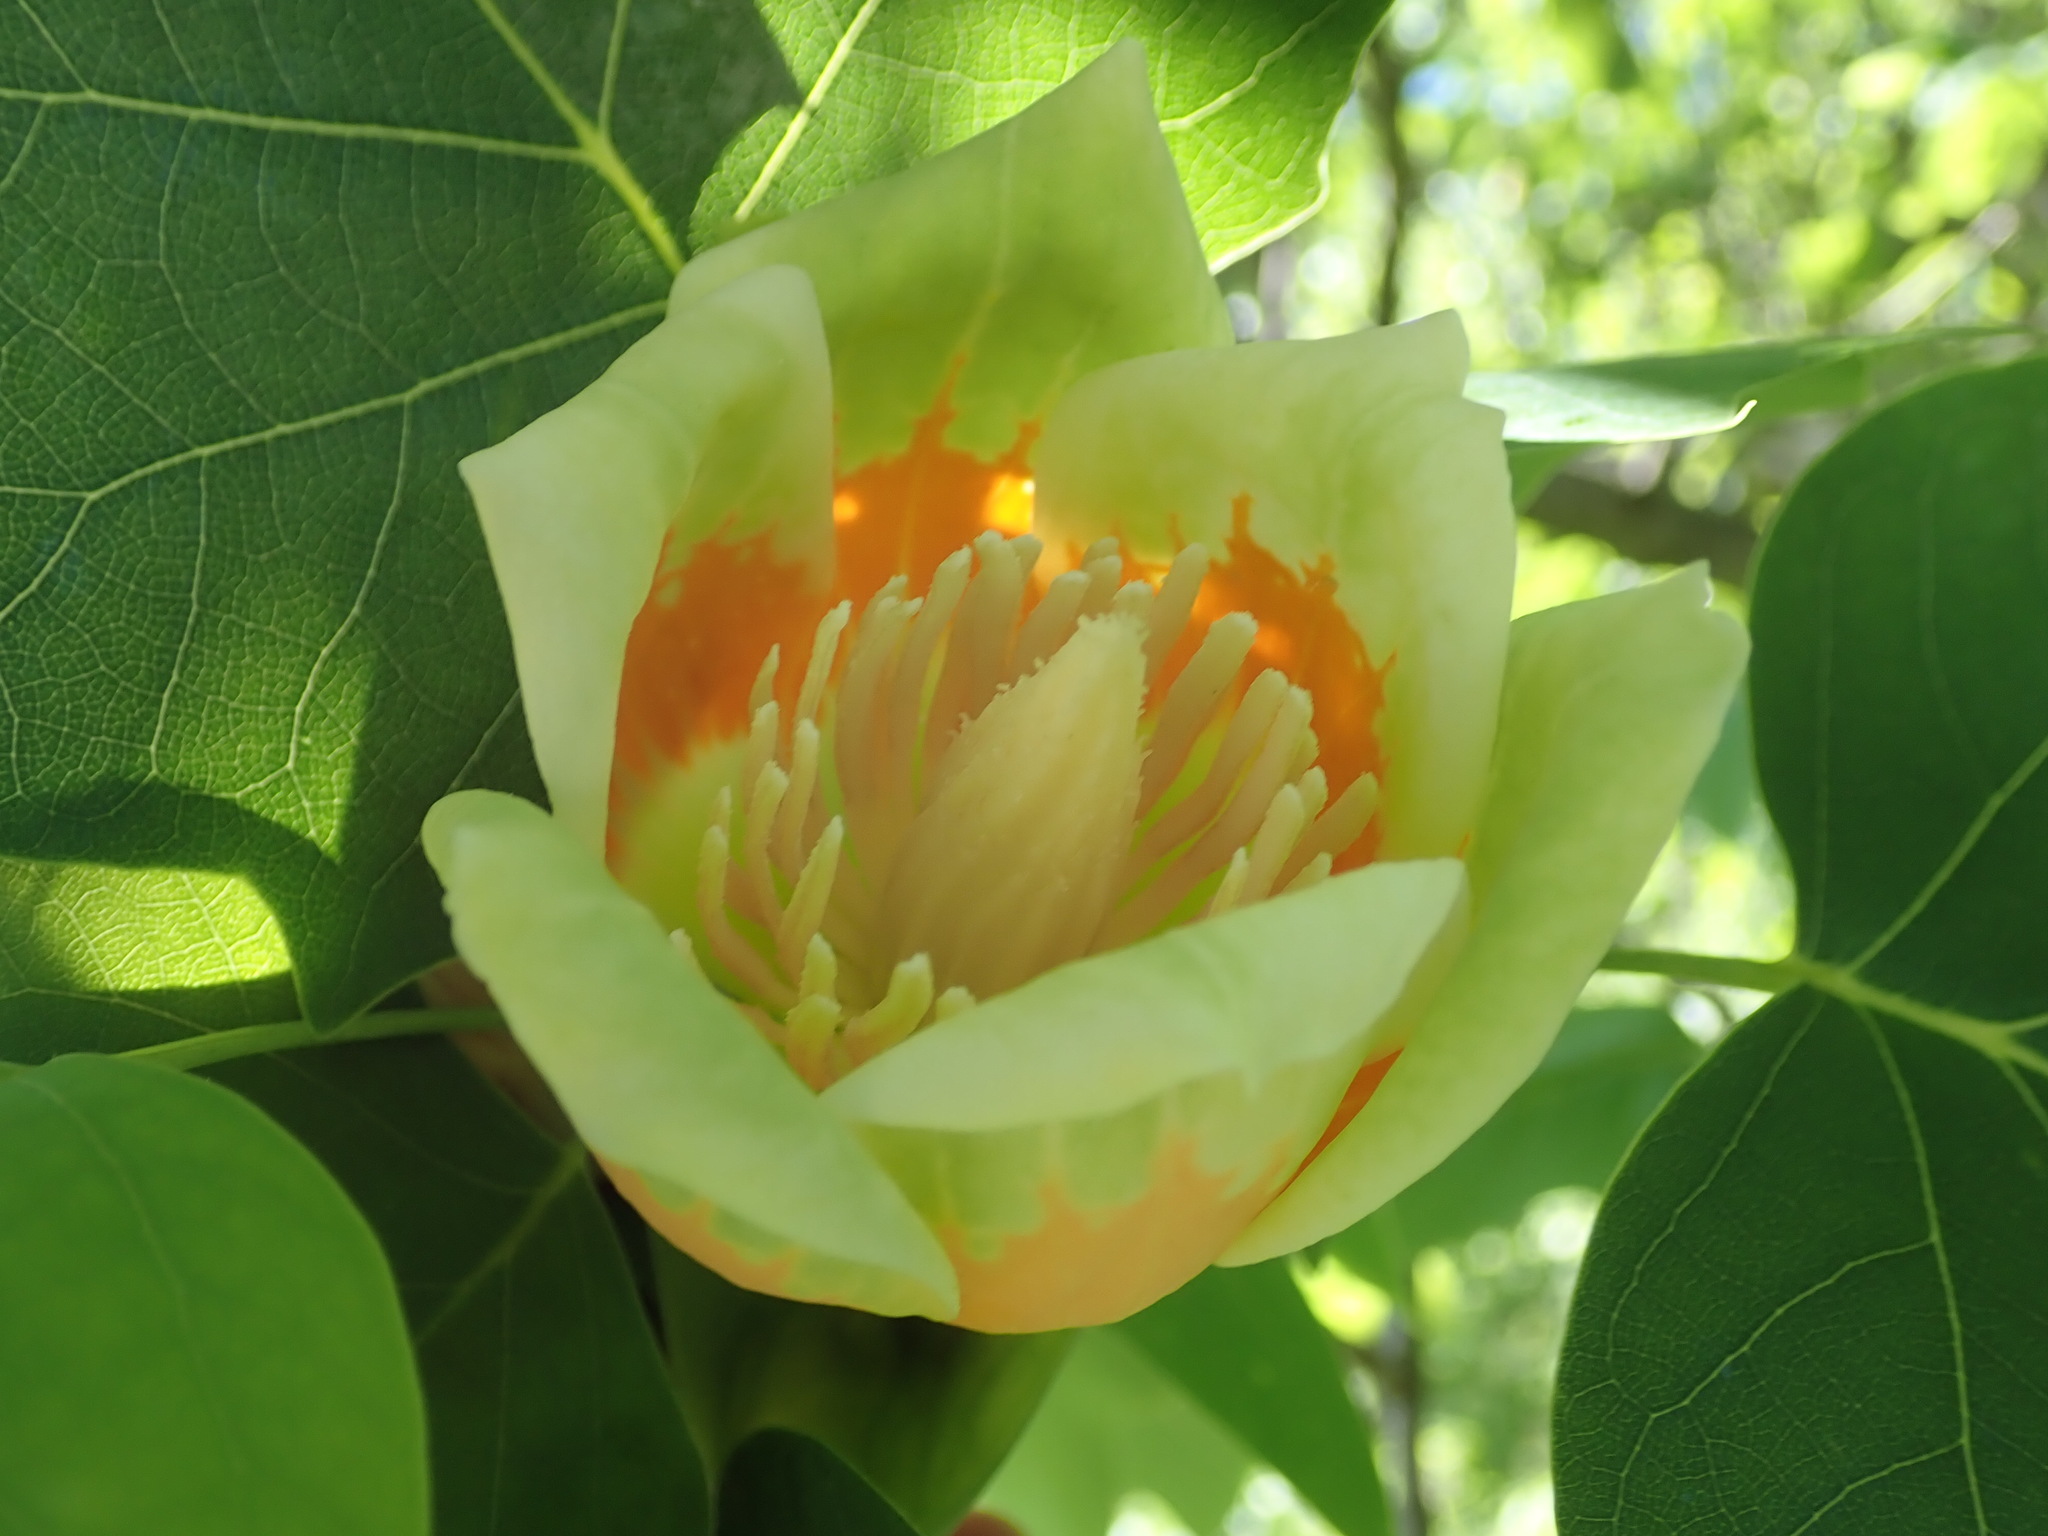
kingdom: Plantae
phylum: Tracheophyta
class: Magnoliopsida
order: Magnoliales
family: Magnoliaceae
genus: Liriodendron
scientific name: Liriodendron tulipifera
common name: Tulip tree
